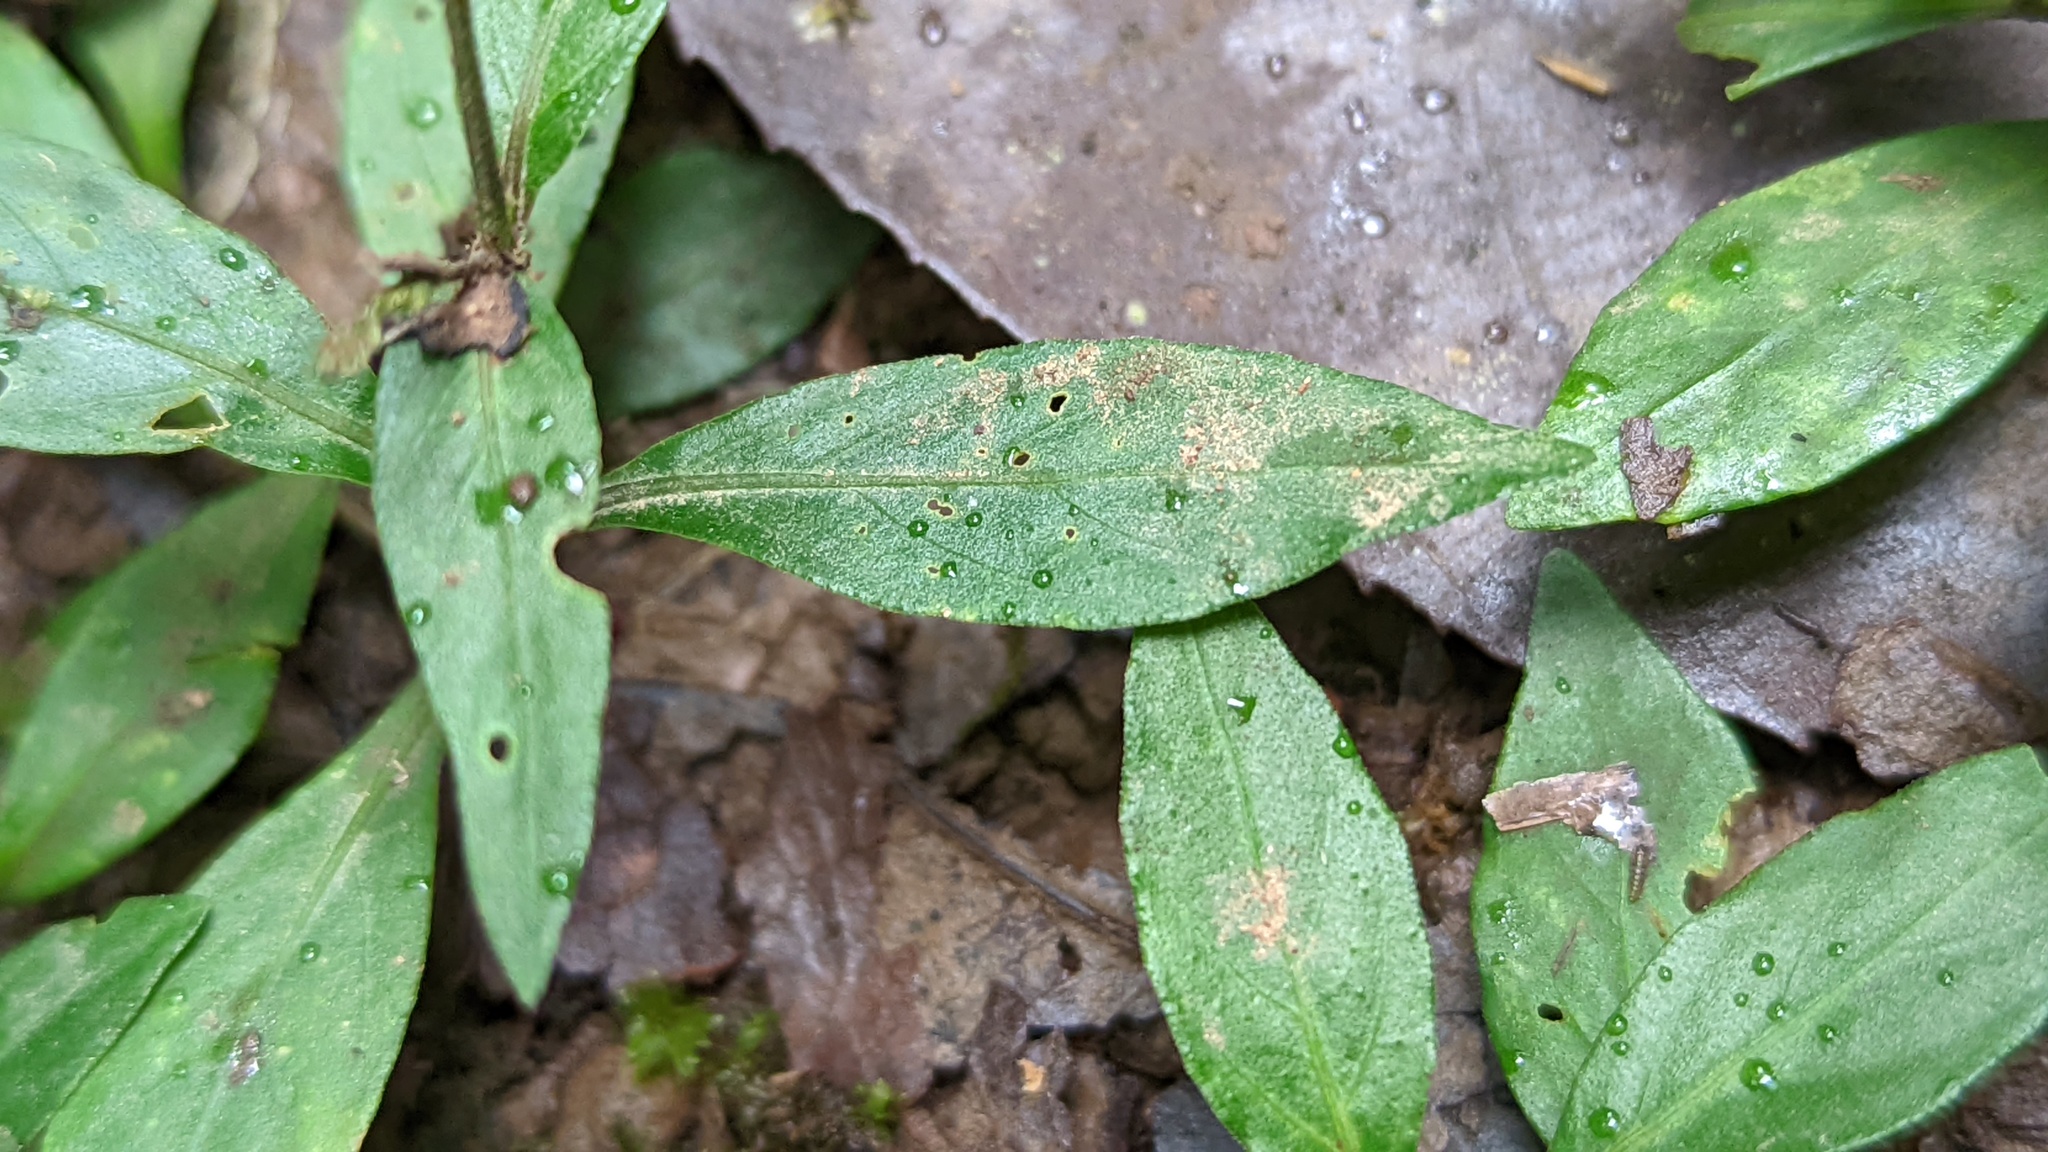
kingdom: Plantae
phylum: Tracheophyta
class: Magnoliopsida
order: Lamiales
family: Acanthaceae
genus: Justicia
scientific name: Justicia comata
